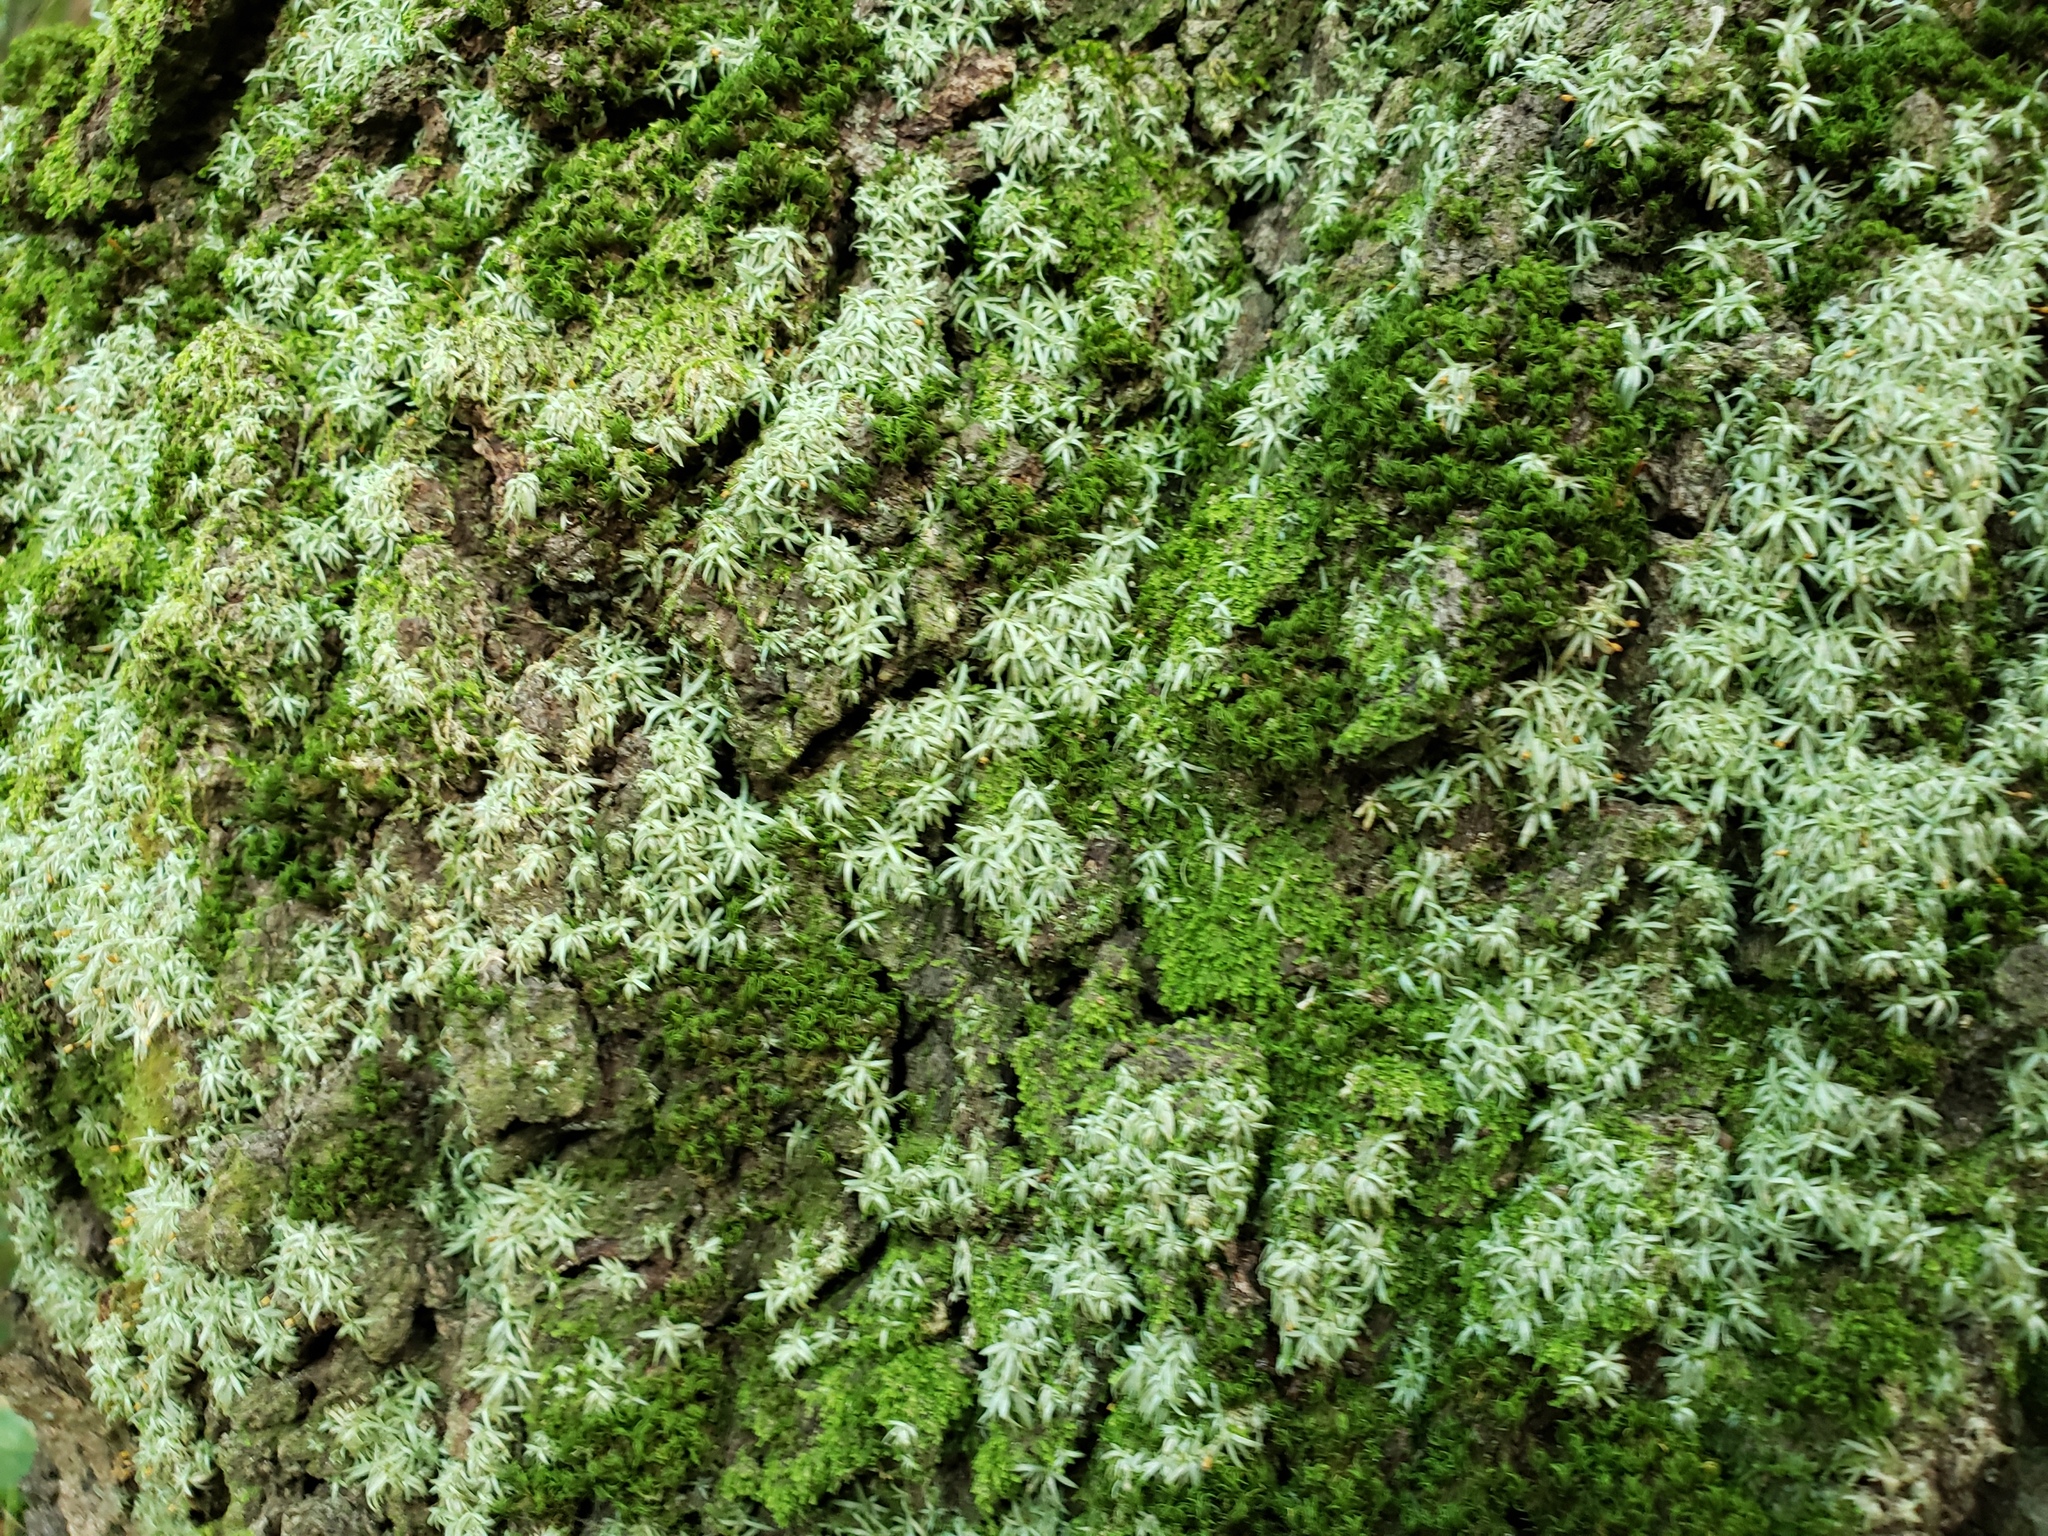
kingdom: Plantae
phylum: Bryophyta
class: Bryopsida
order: Dicranales
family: Octoblepharaceae
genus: Octoblepharum
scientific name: Octoblepharum albidum
